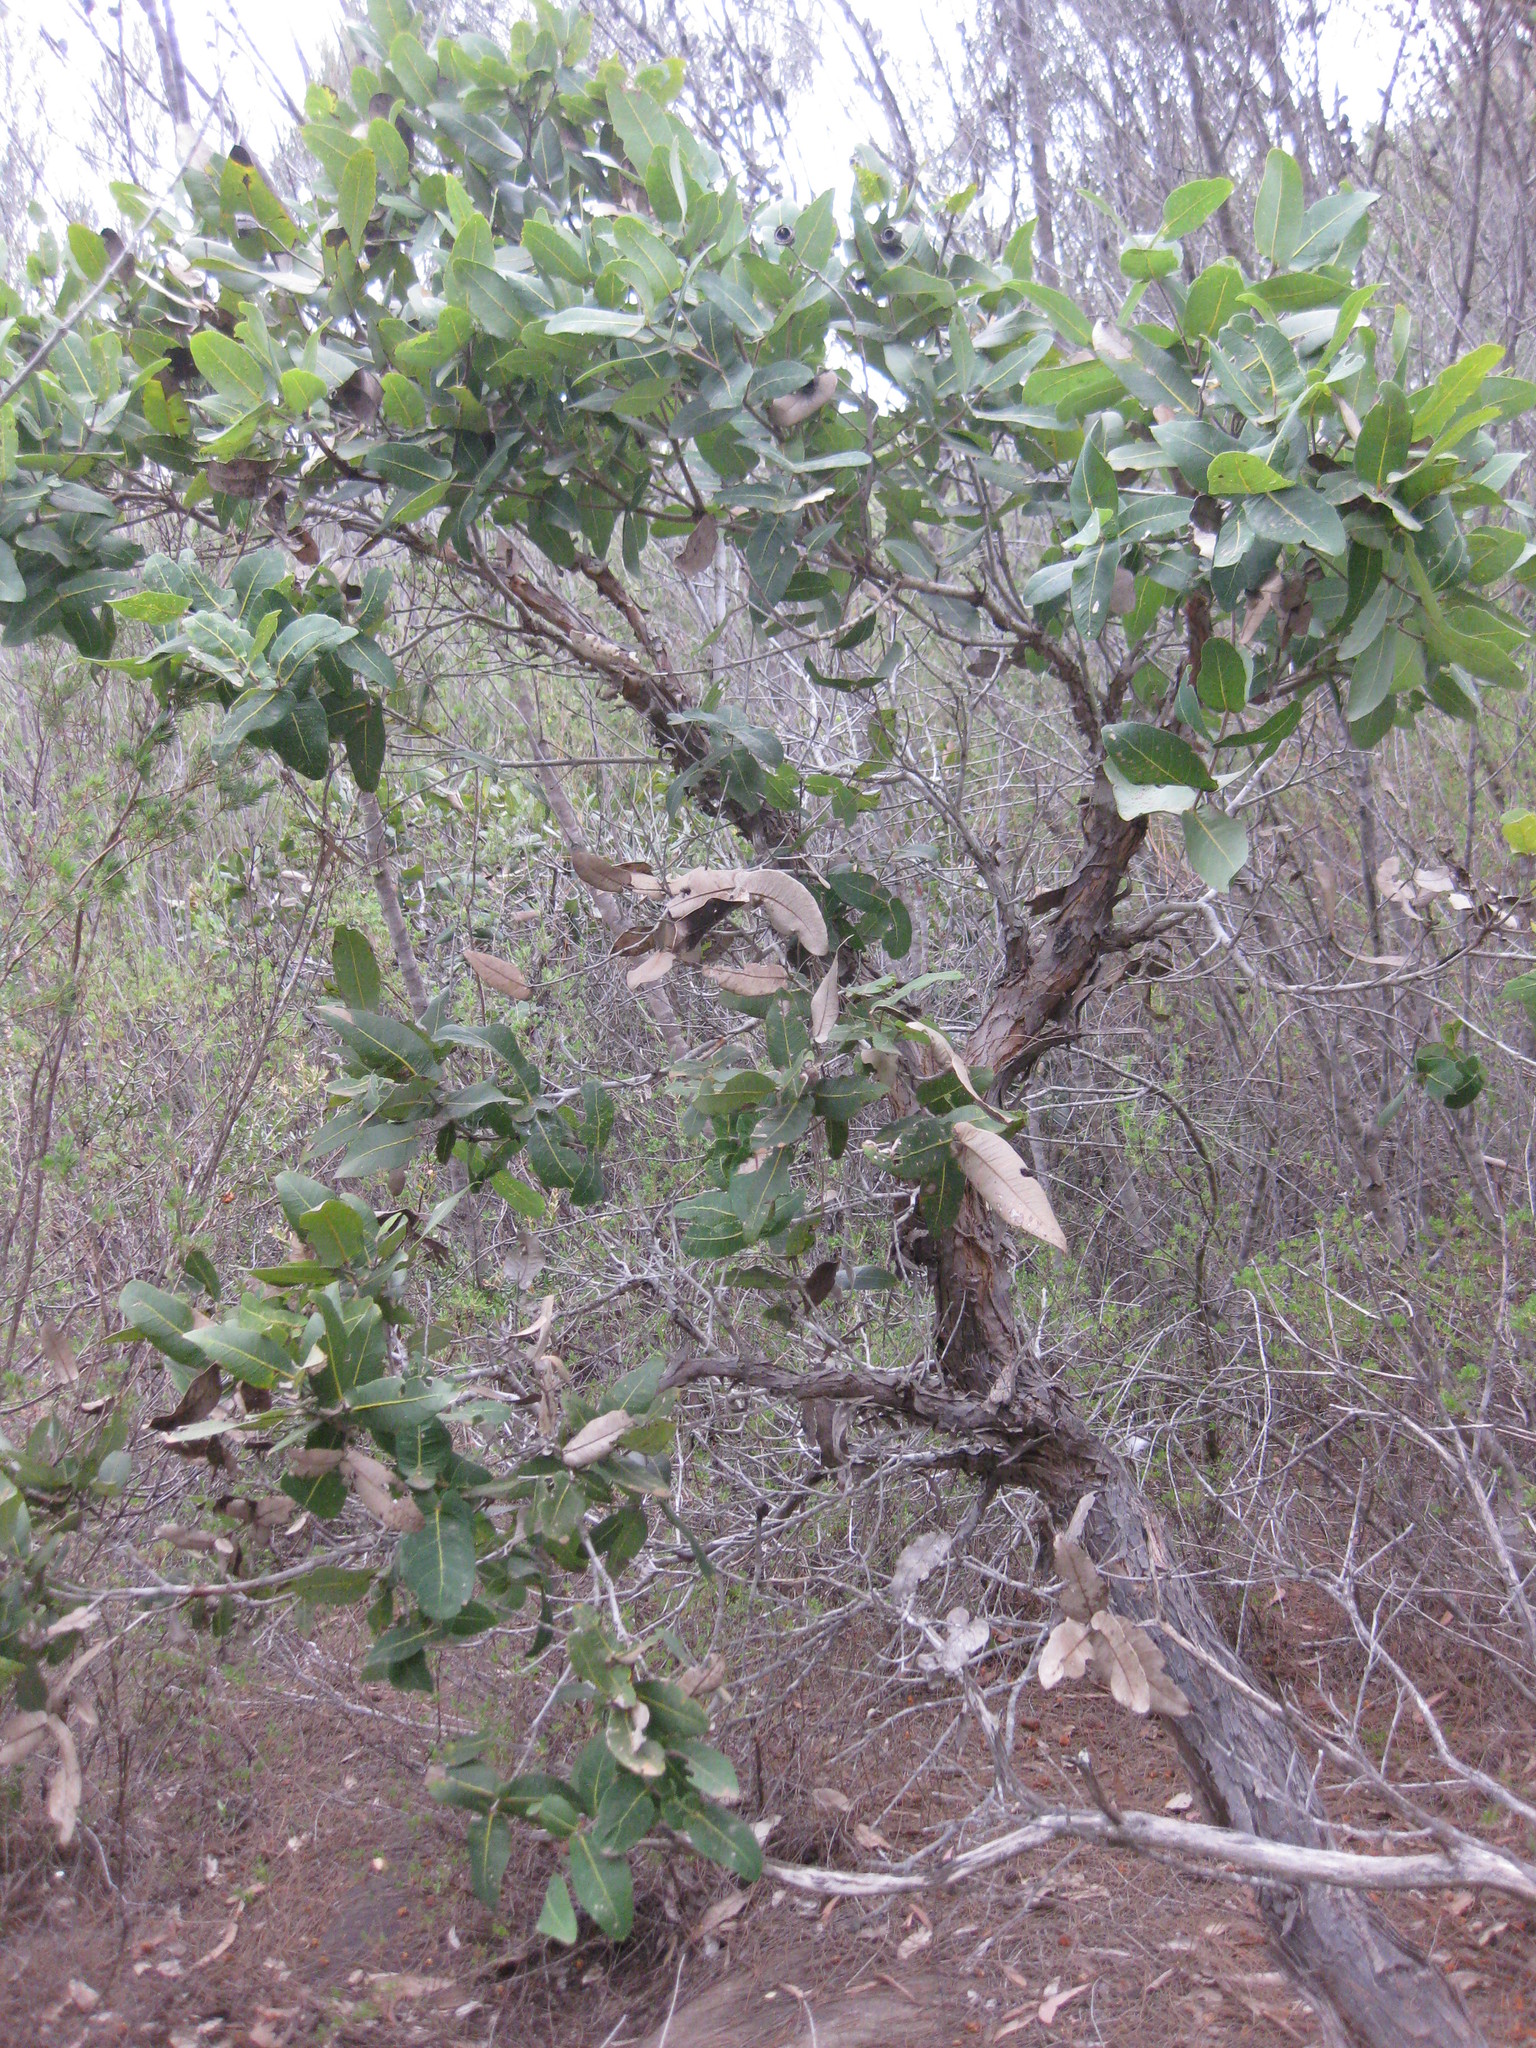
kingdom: Plantae
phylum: Tracheophyta
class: Magnoliopsida
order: Myrtales
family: Myrtaceae
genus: Angophora
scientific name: Angophora hispida
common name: Dwarf-apple
